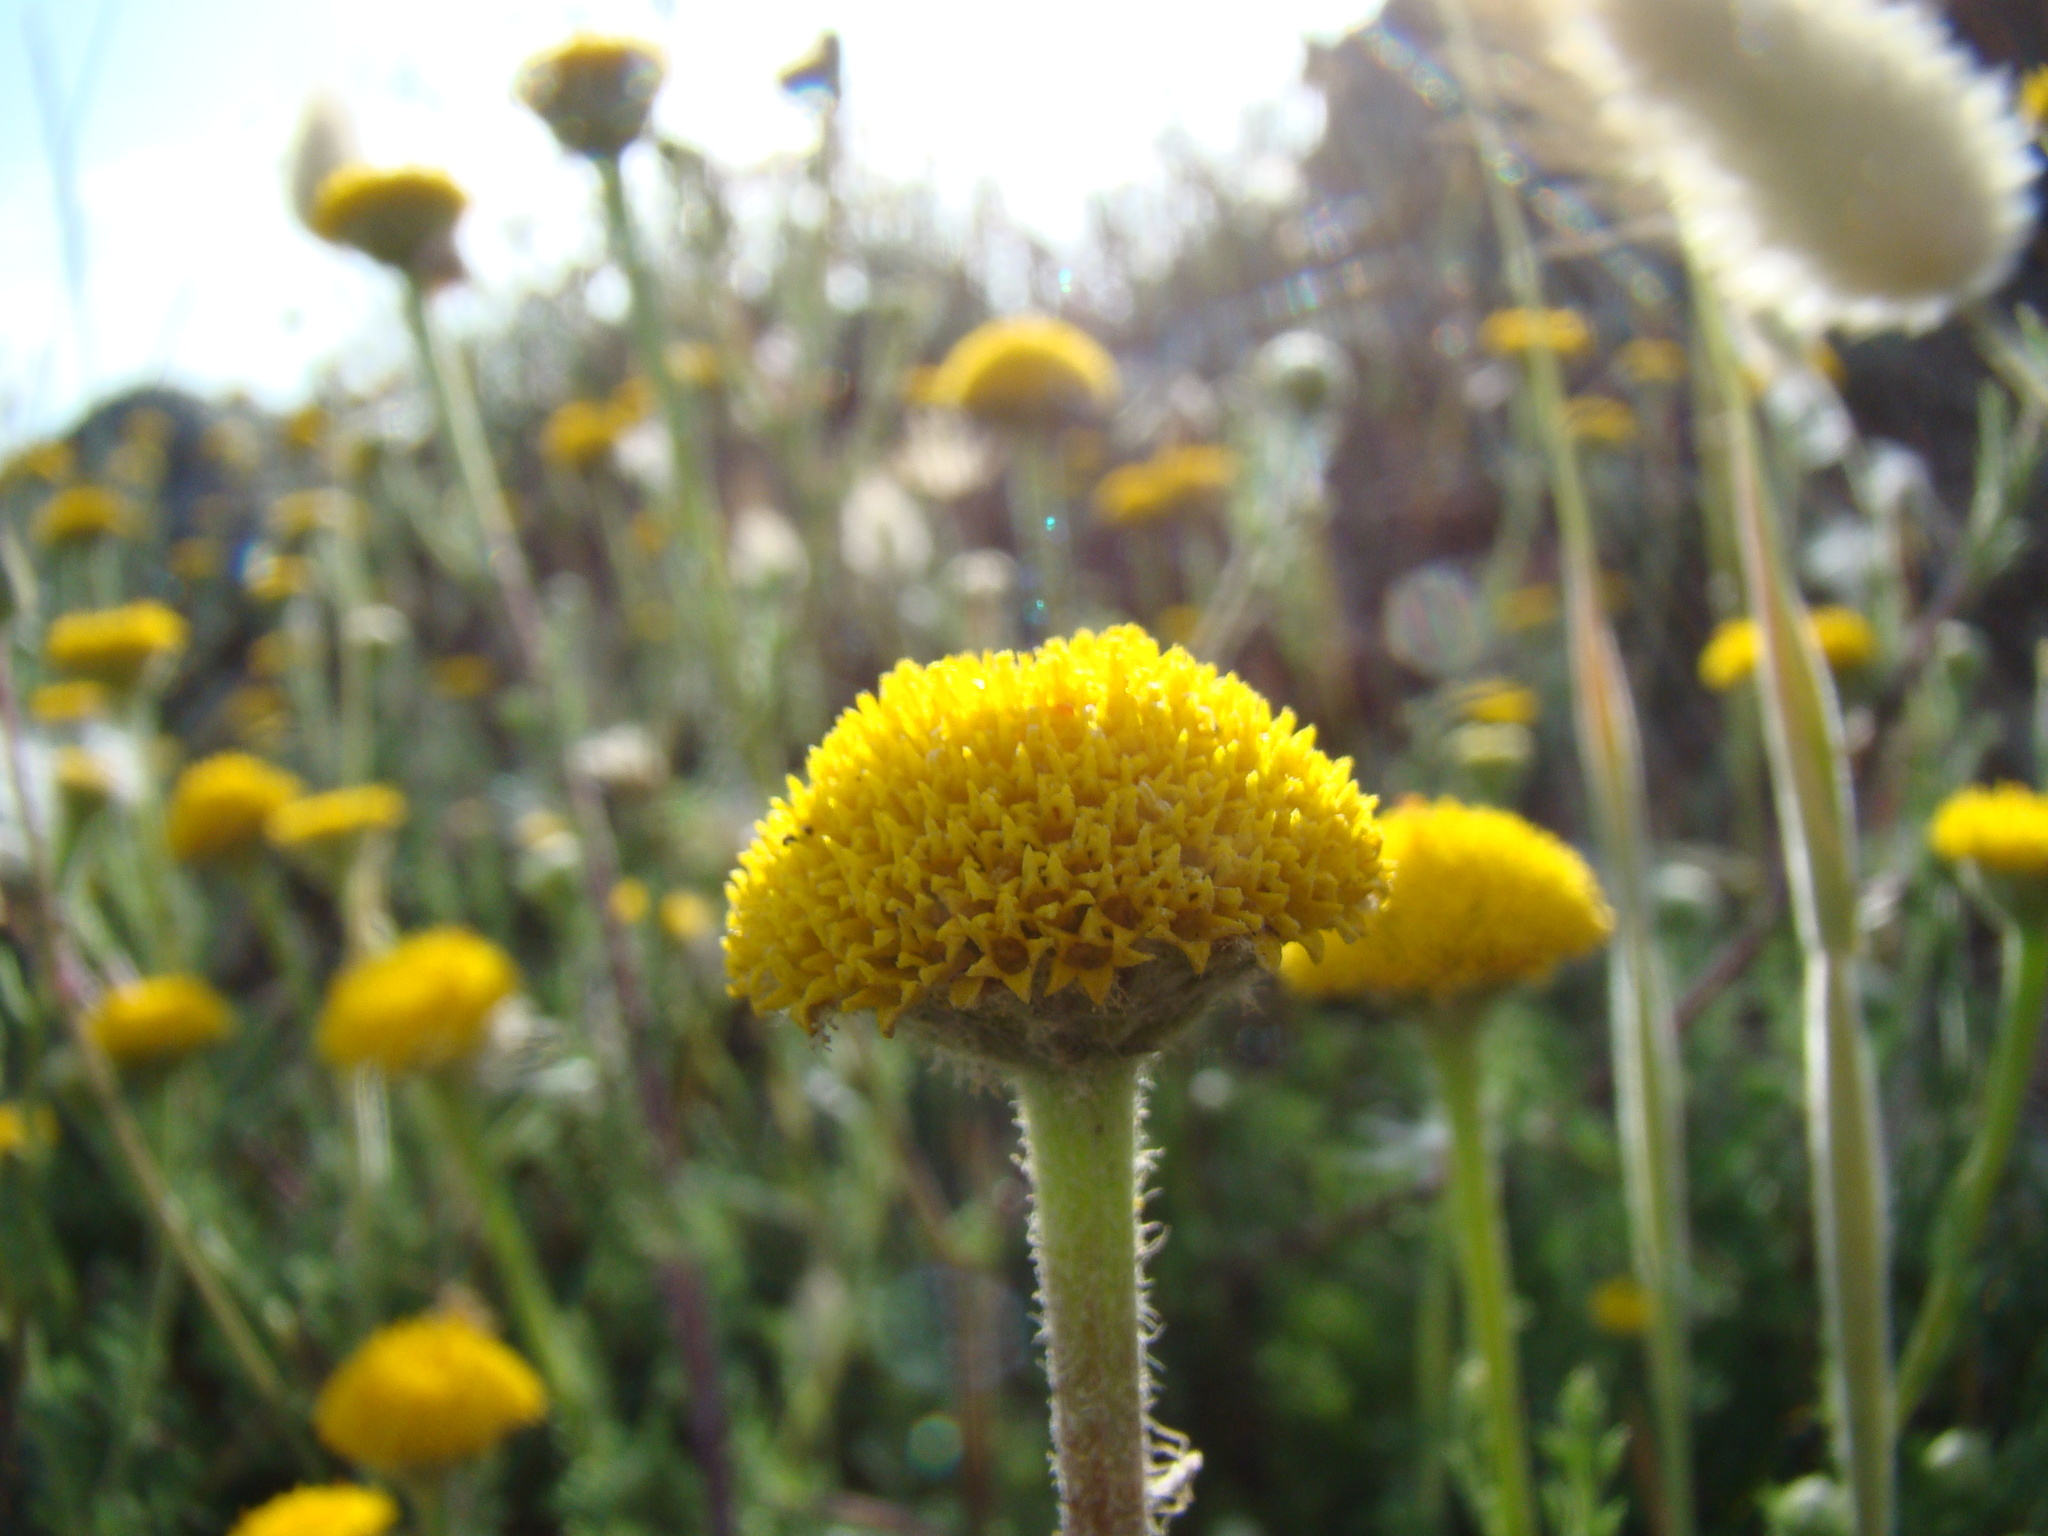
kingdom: Plantae
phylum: Tracheophyta
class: Magnoliopsida
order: Asterales
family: Asteraceae
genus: Anacyclus
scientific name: Anacyclus valentinus
